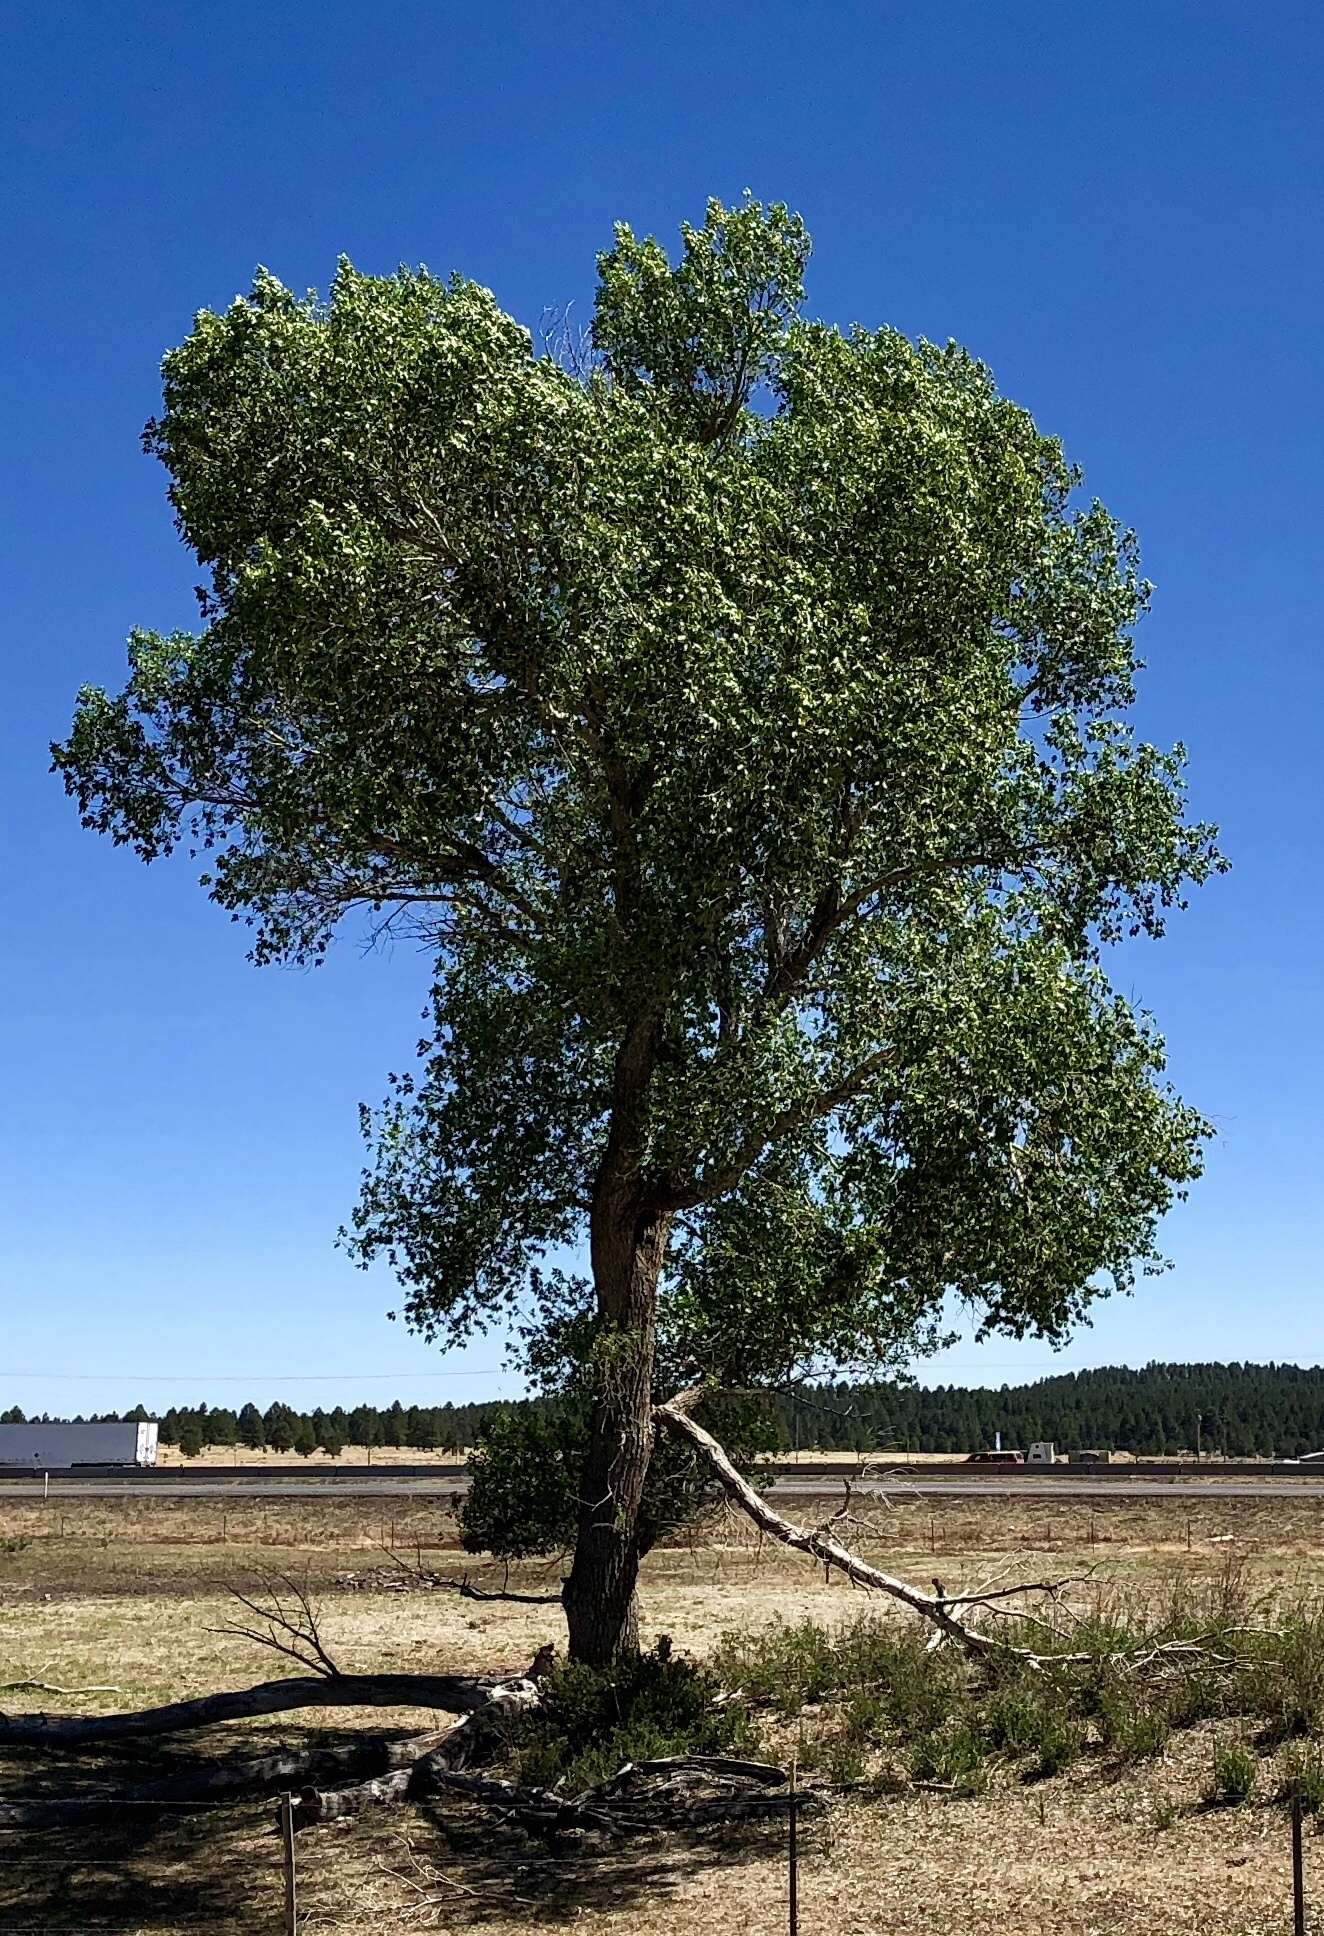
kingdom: Plantae
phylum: Tracheophyta
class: Magnoliopsida
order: Malpighiales
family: Salicaceae
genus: Populus
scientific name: Populus fremontii
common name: Fremont's cottonwood
